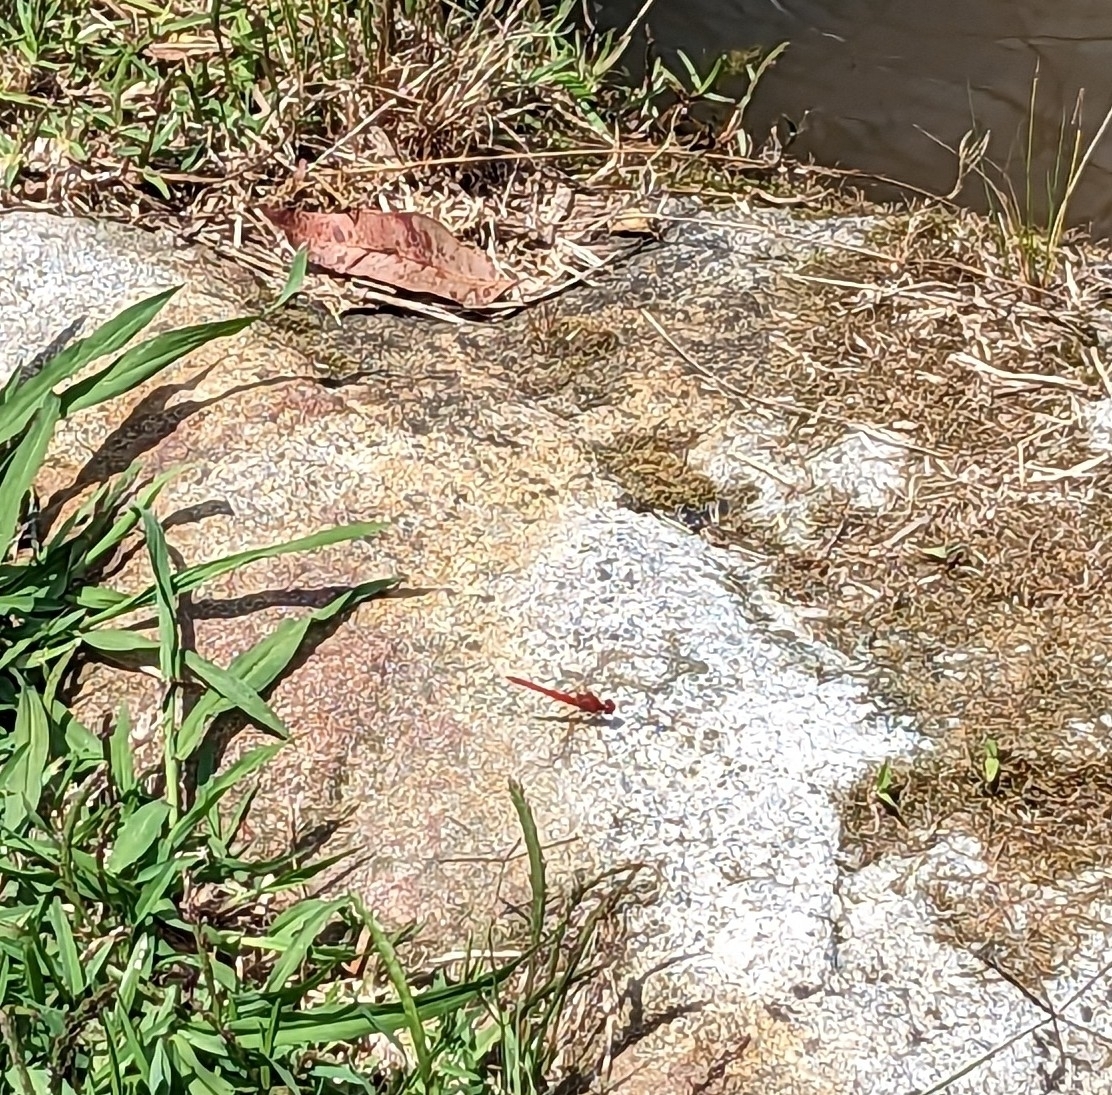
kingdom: Animalia
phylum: Arthropoda
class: Insecta
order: Odonata
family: Libellulidae
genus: Diplacodes
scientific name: Diplacodes haematodes
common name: Scarlet percher
